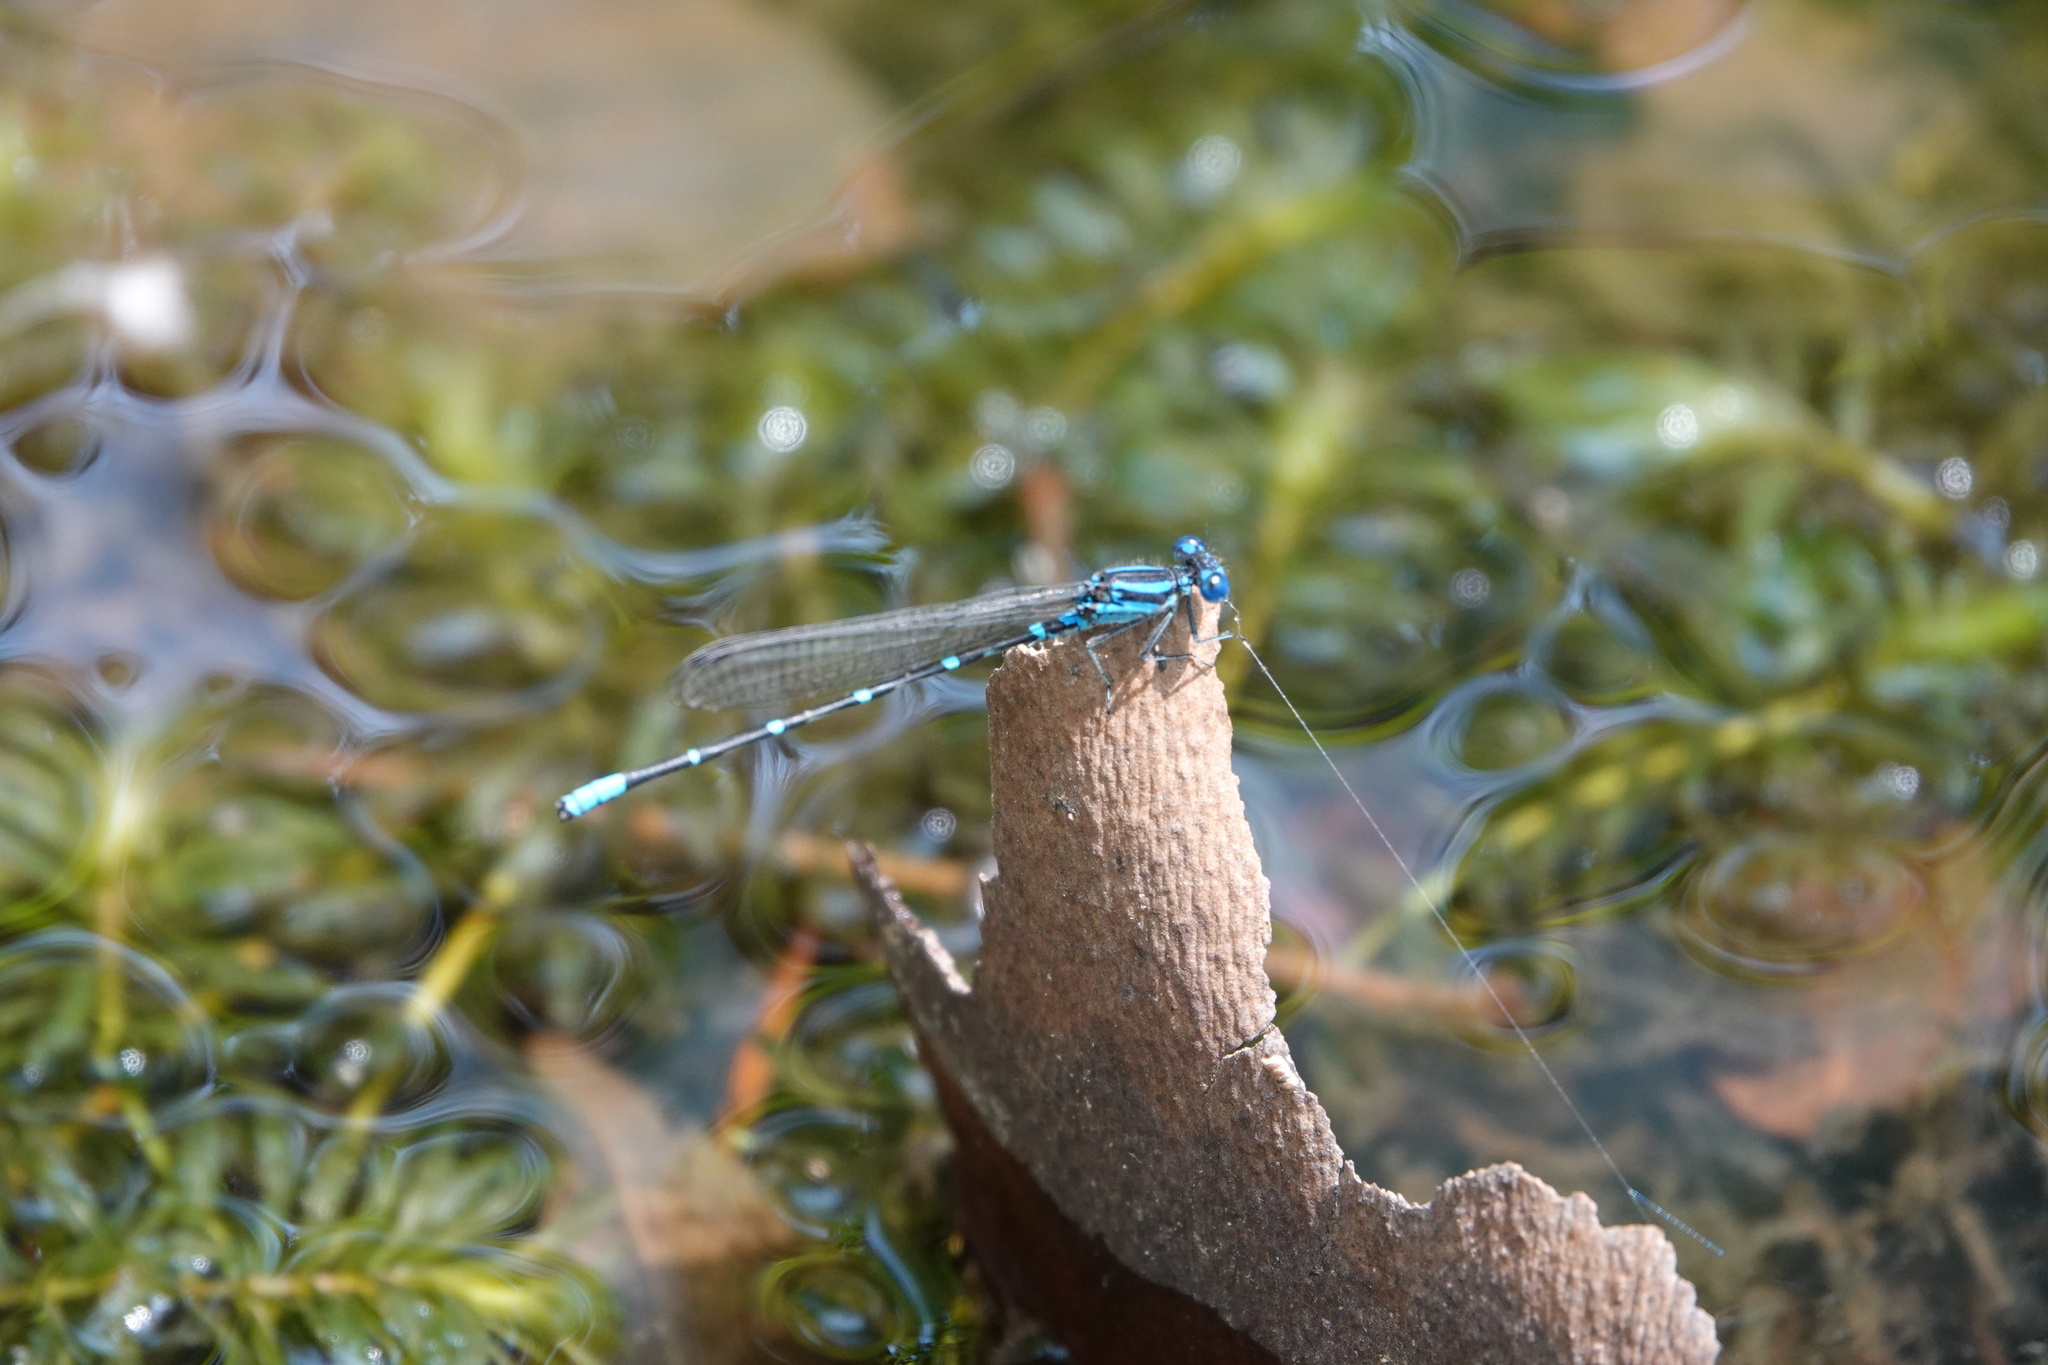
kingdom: Animalia
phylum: Arthropoda
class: Insecta
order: Odonata
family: Coenagrionidae
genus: Argia
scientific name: Argia sedula
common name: Blue-ringed dancer
